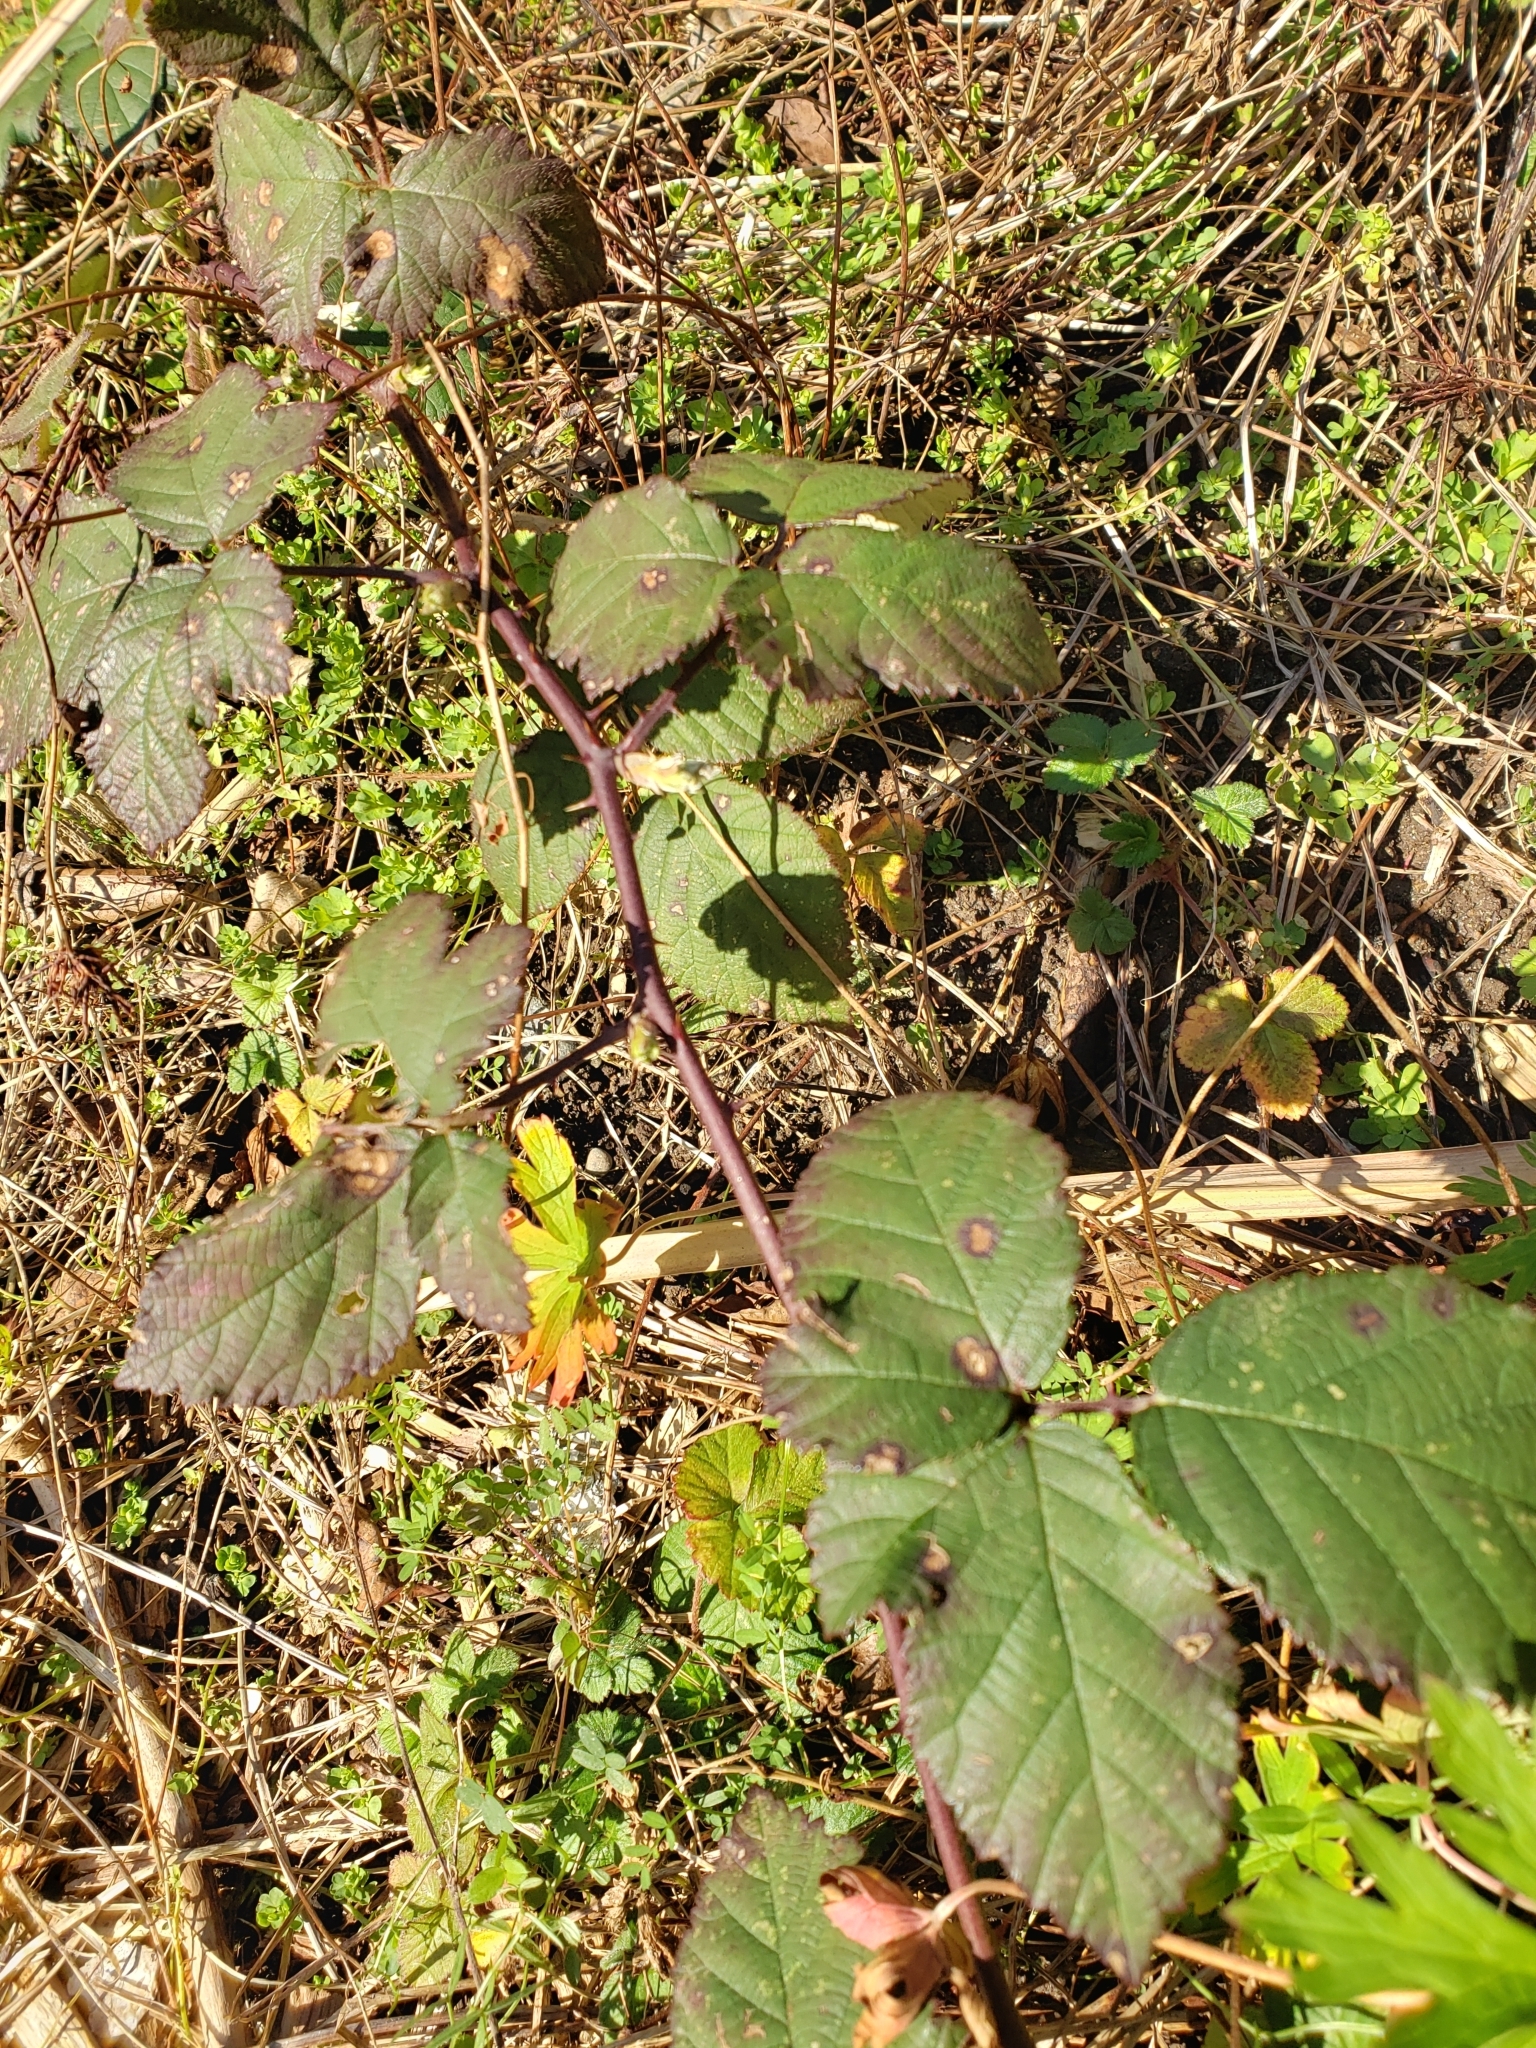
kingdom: Plantae
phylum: Tracheophyta
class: Magnoliopsida
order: Rosales
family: Rosaceae
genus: Rubus
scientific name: Rubus bifrons
